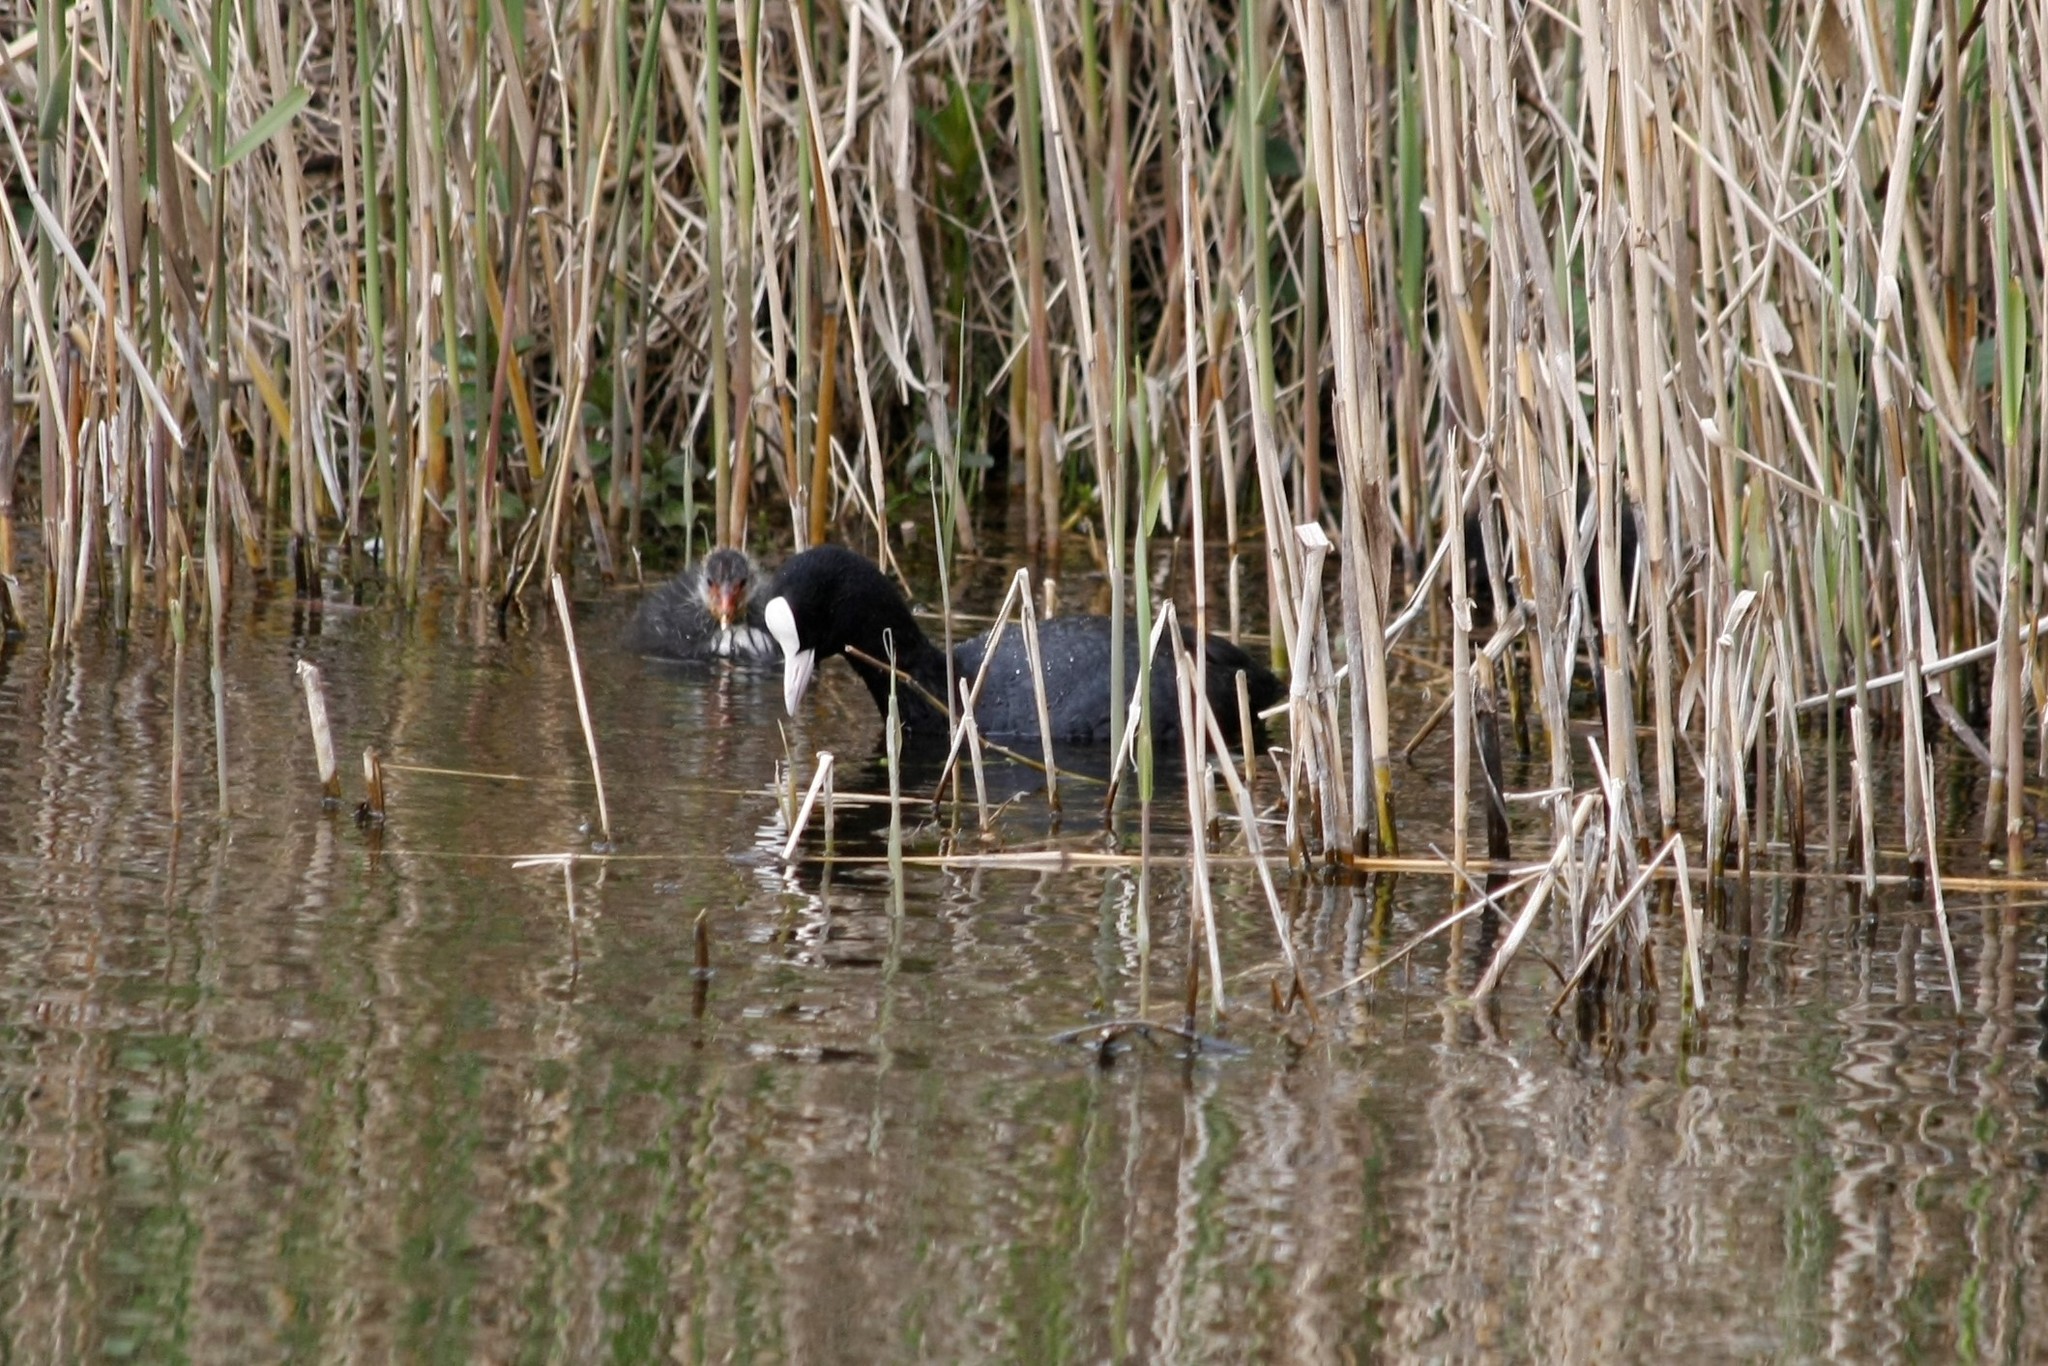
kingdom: Animalia
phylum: Chordata
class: Aves
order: Gruiformes
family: Rallidae
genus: Fulica
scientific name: Fulica atra
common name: Eurasian coot
